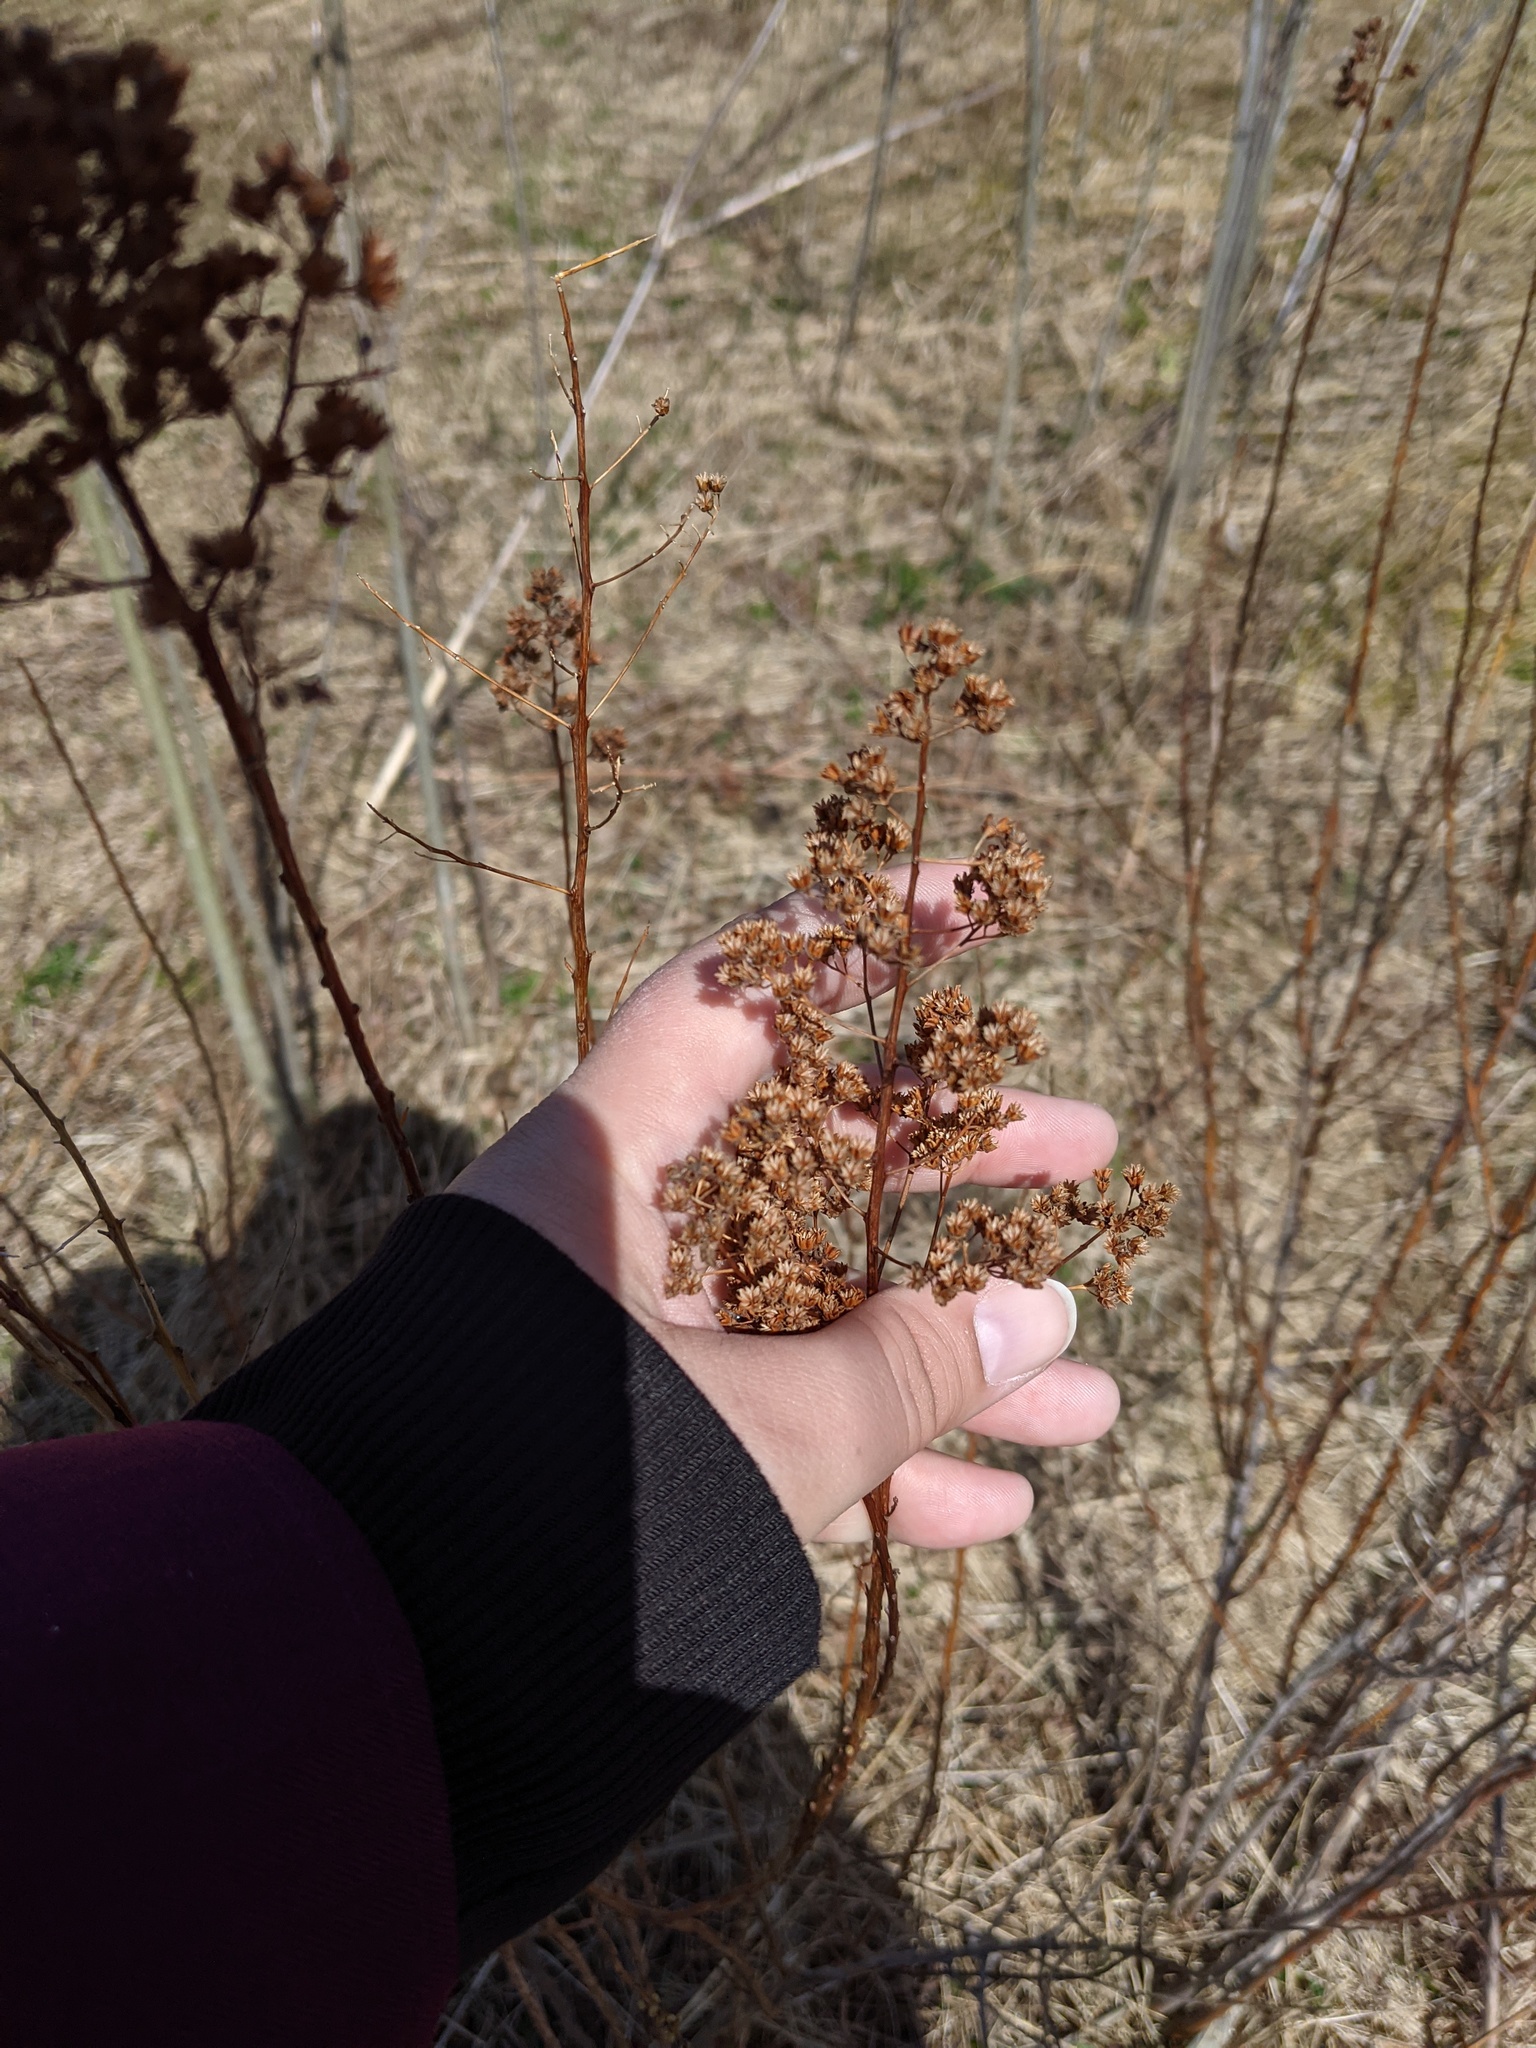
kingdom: Plantae
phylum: Tracheophyta
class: Magnoliopsida
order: Rosales
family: Rosaceae
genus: Spiraea
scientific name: Spiraea alba
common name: Pale bridewort
